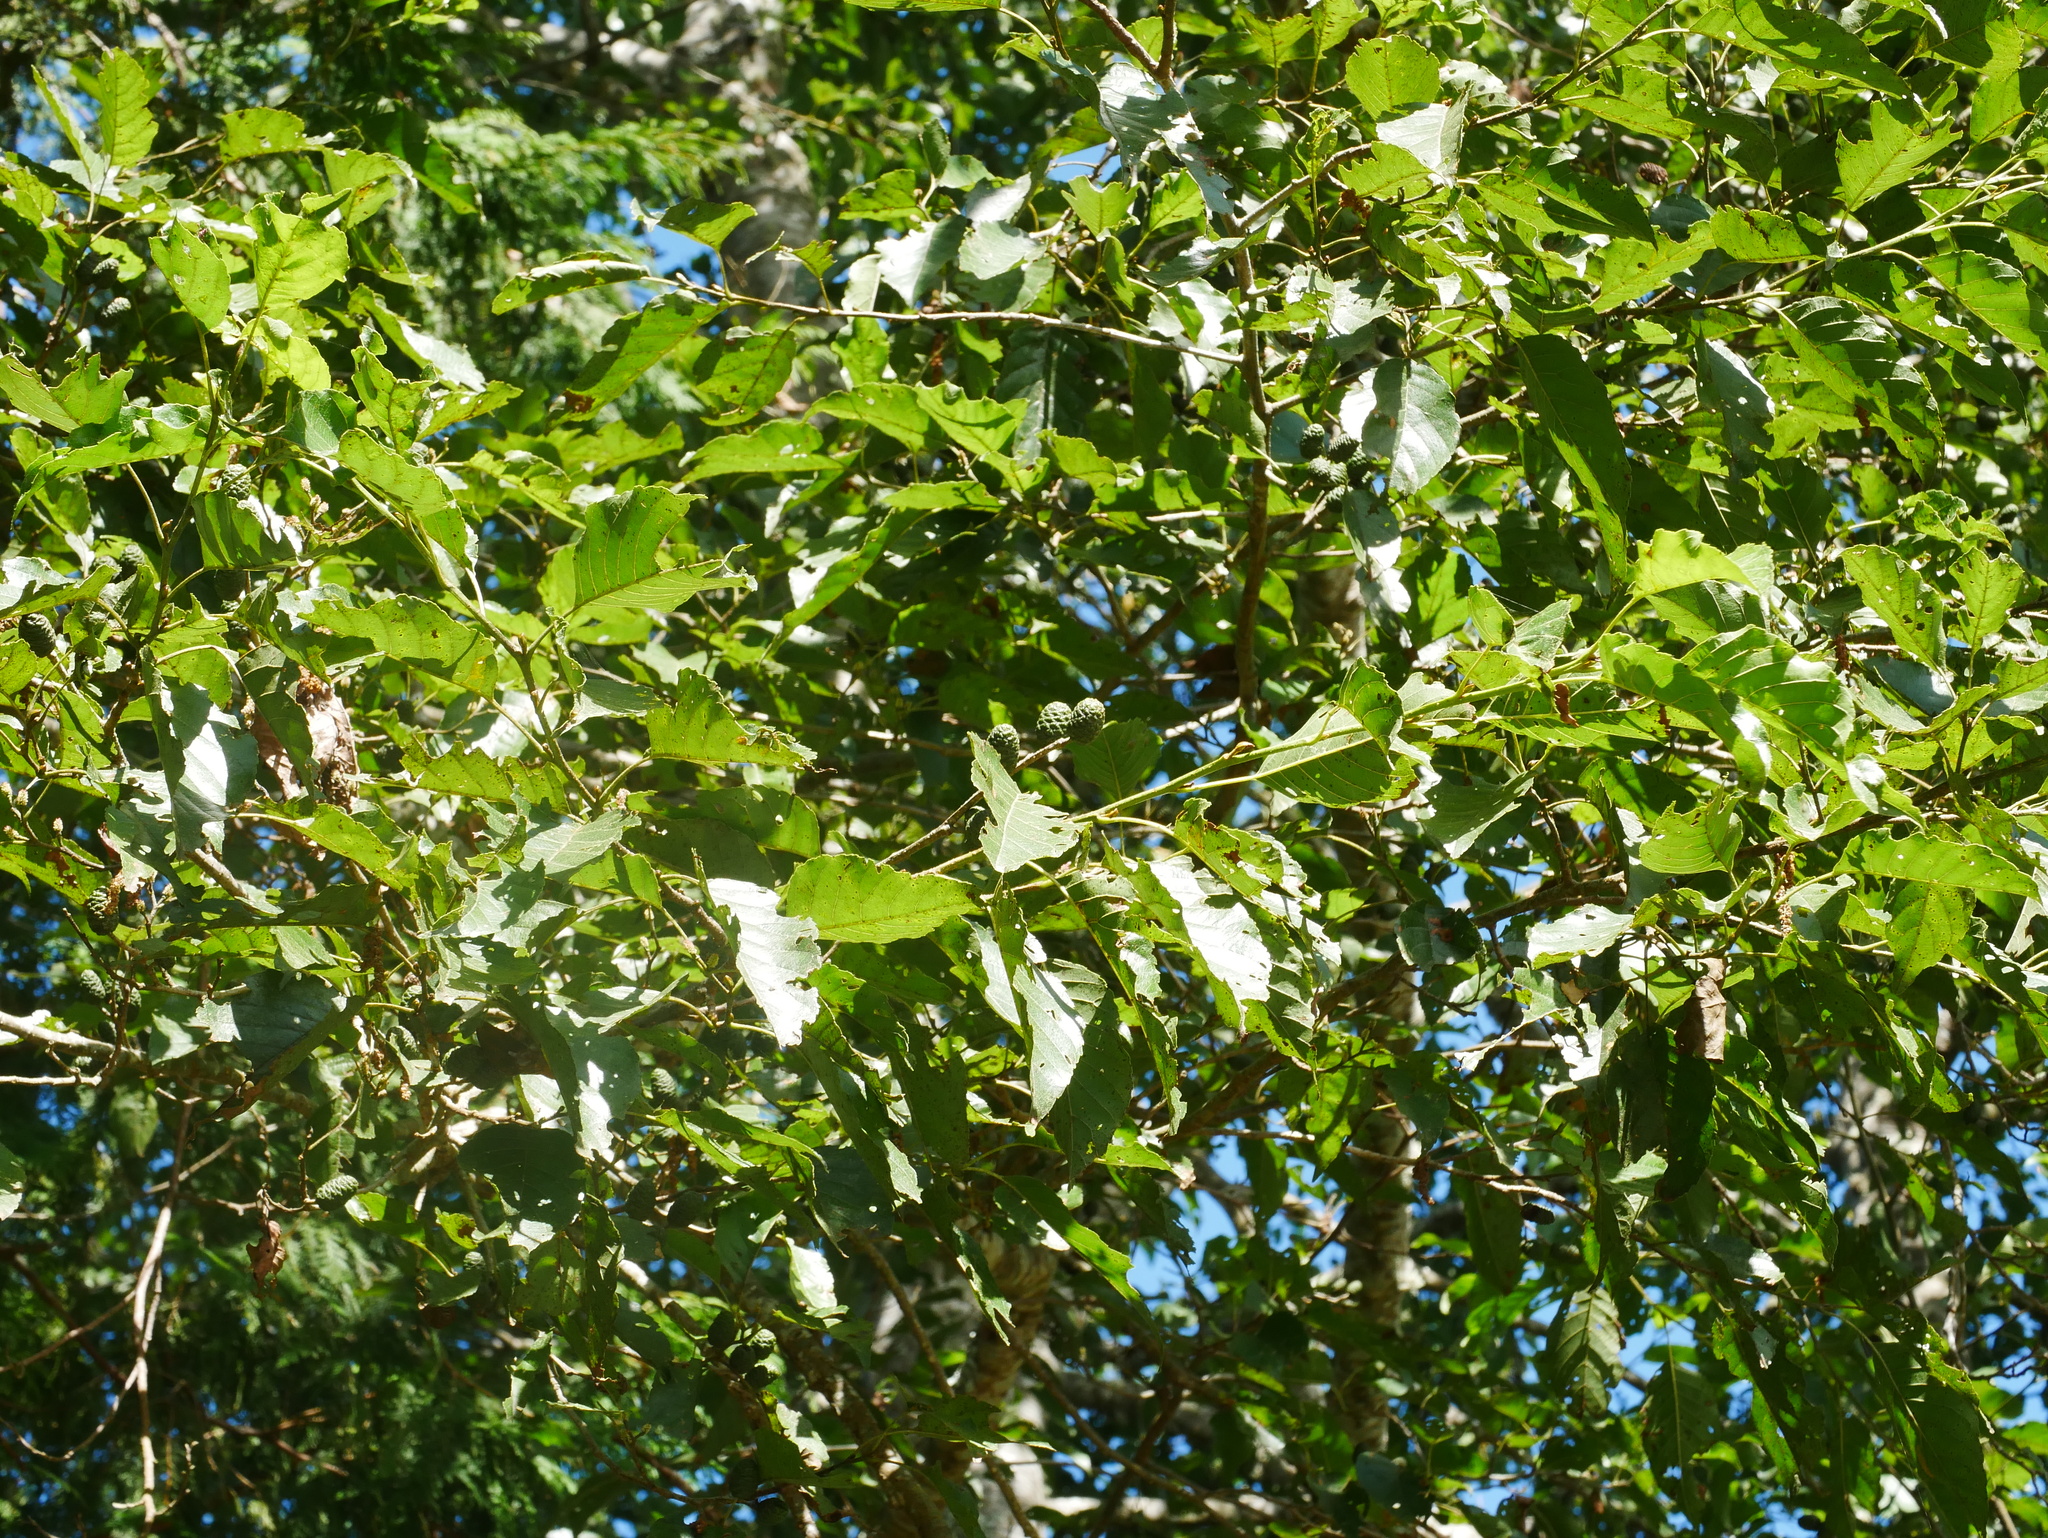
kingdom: Plantae
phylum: Tracheophyta
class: Magnoliopsida
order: Fagales
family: Betulaceae
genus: Alnus
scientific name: Alnus formosana
